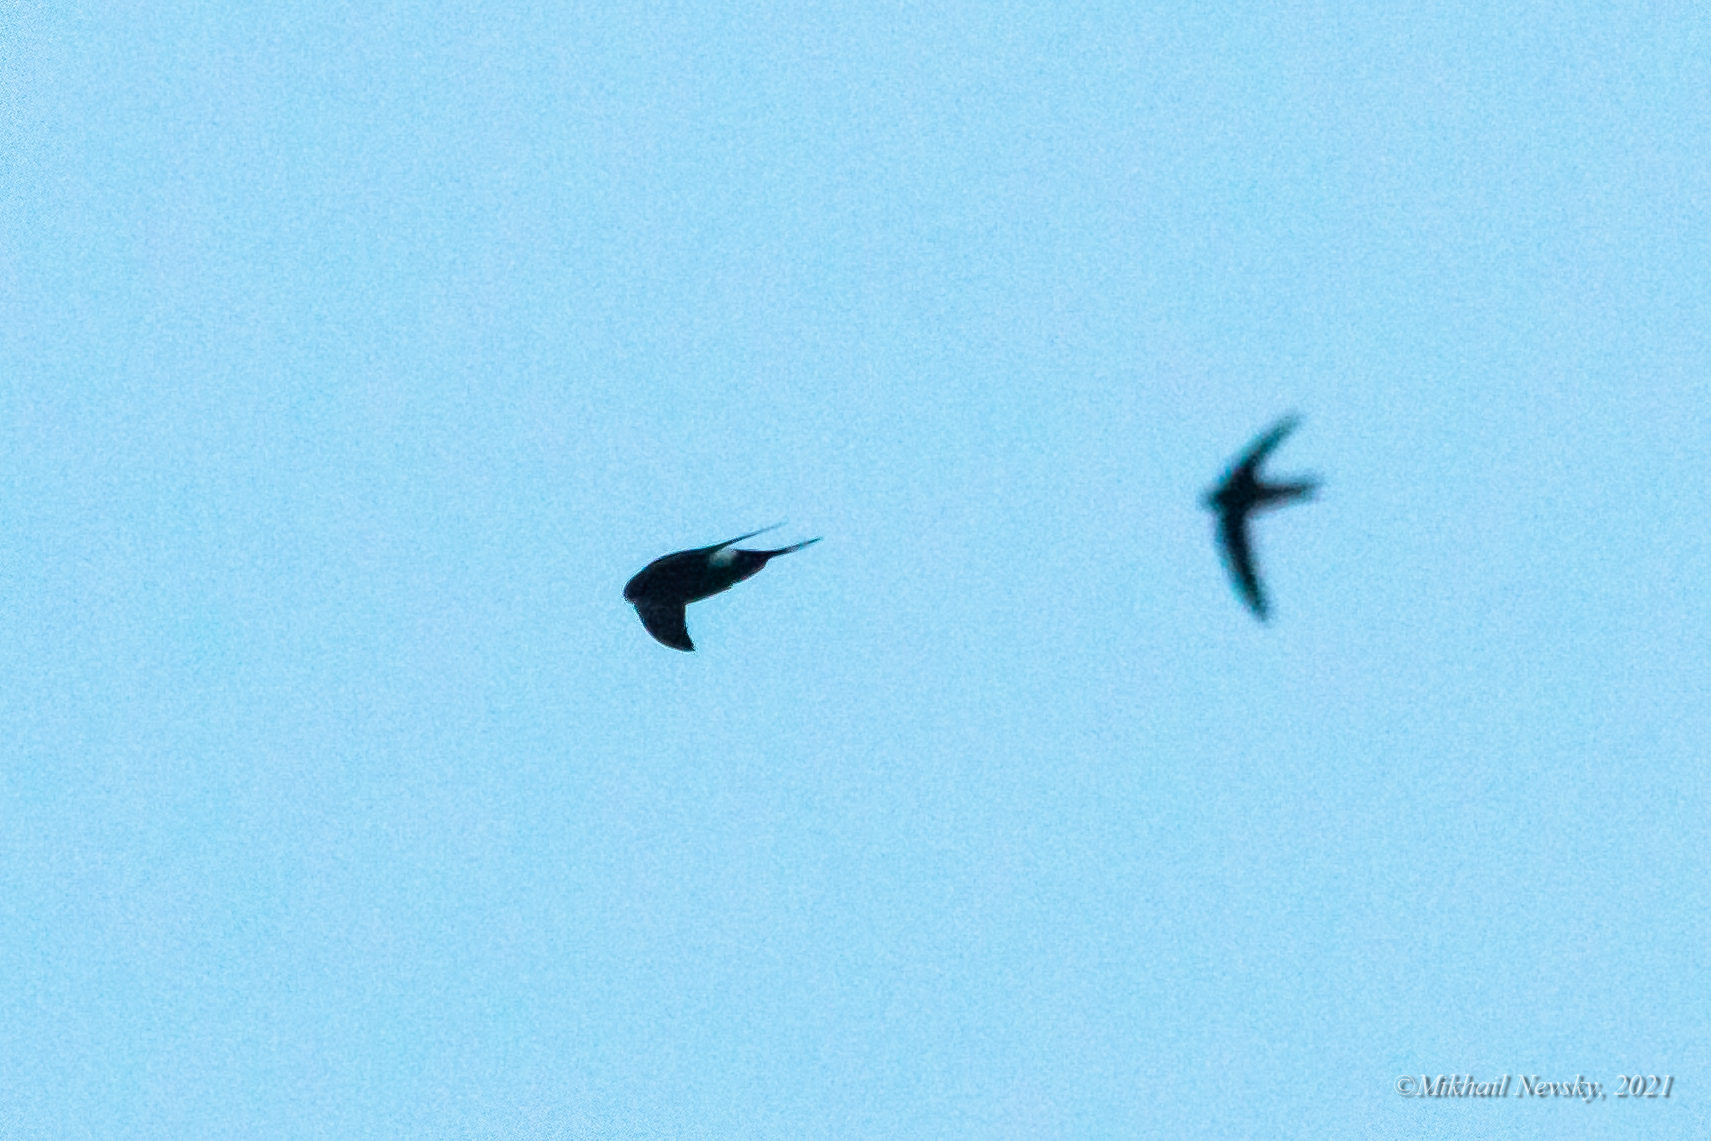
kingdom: Animalia
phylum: Chordata
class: Aves
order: Apodiformes
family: Apodidae
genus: Apus
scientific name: Apus pacificus
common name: Pacific swift
